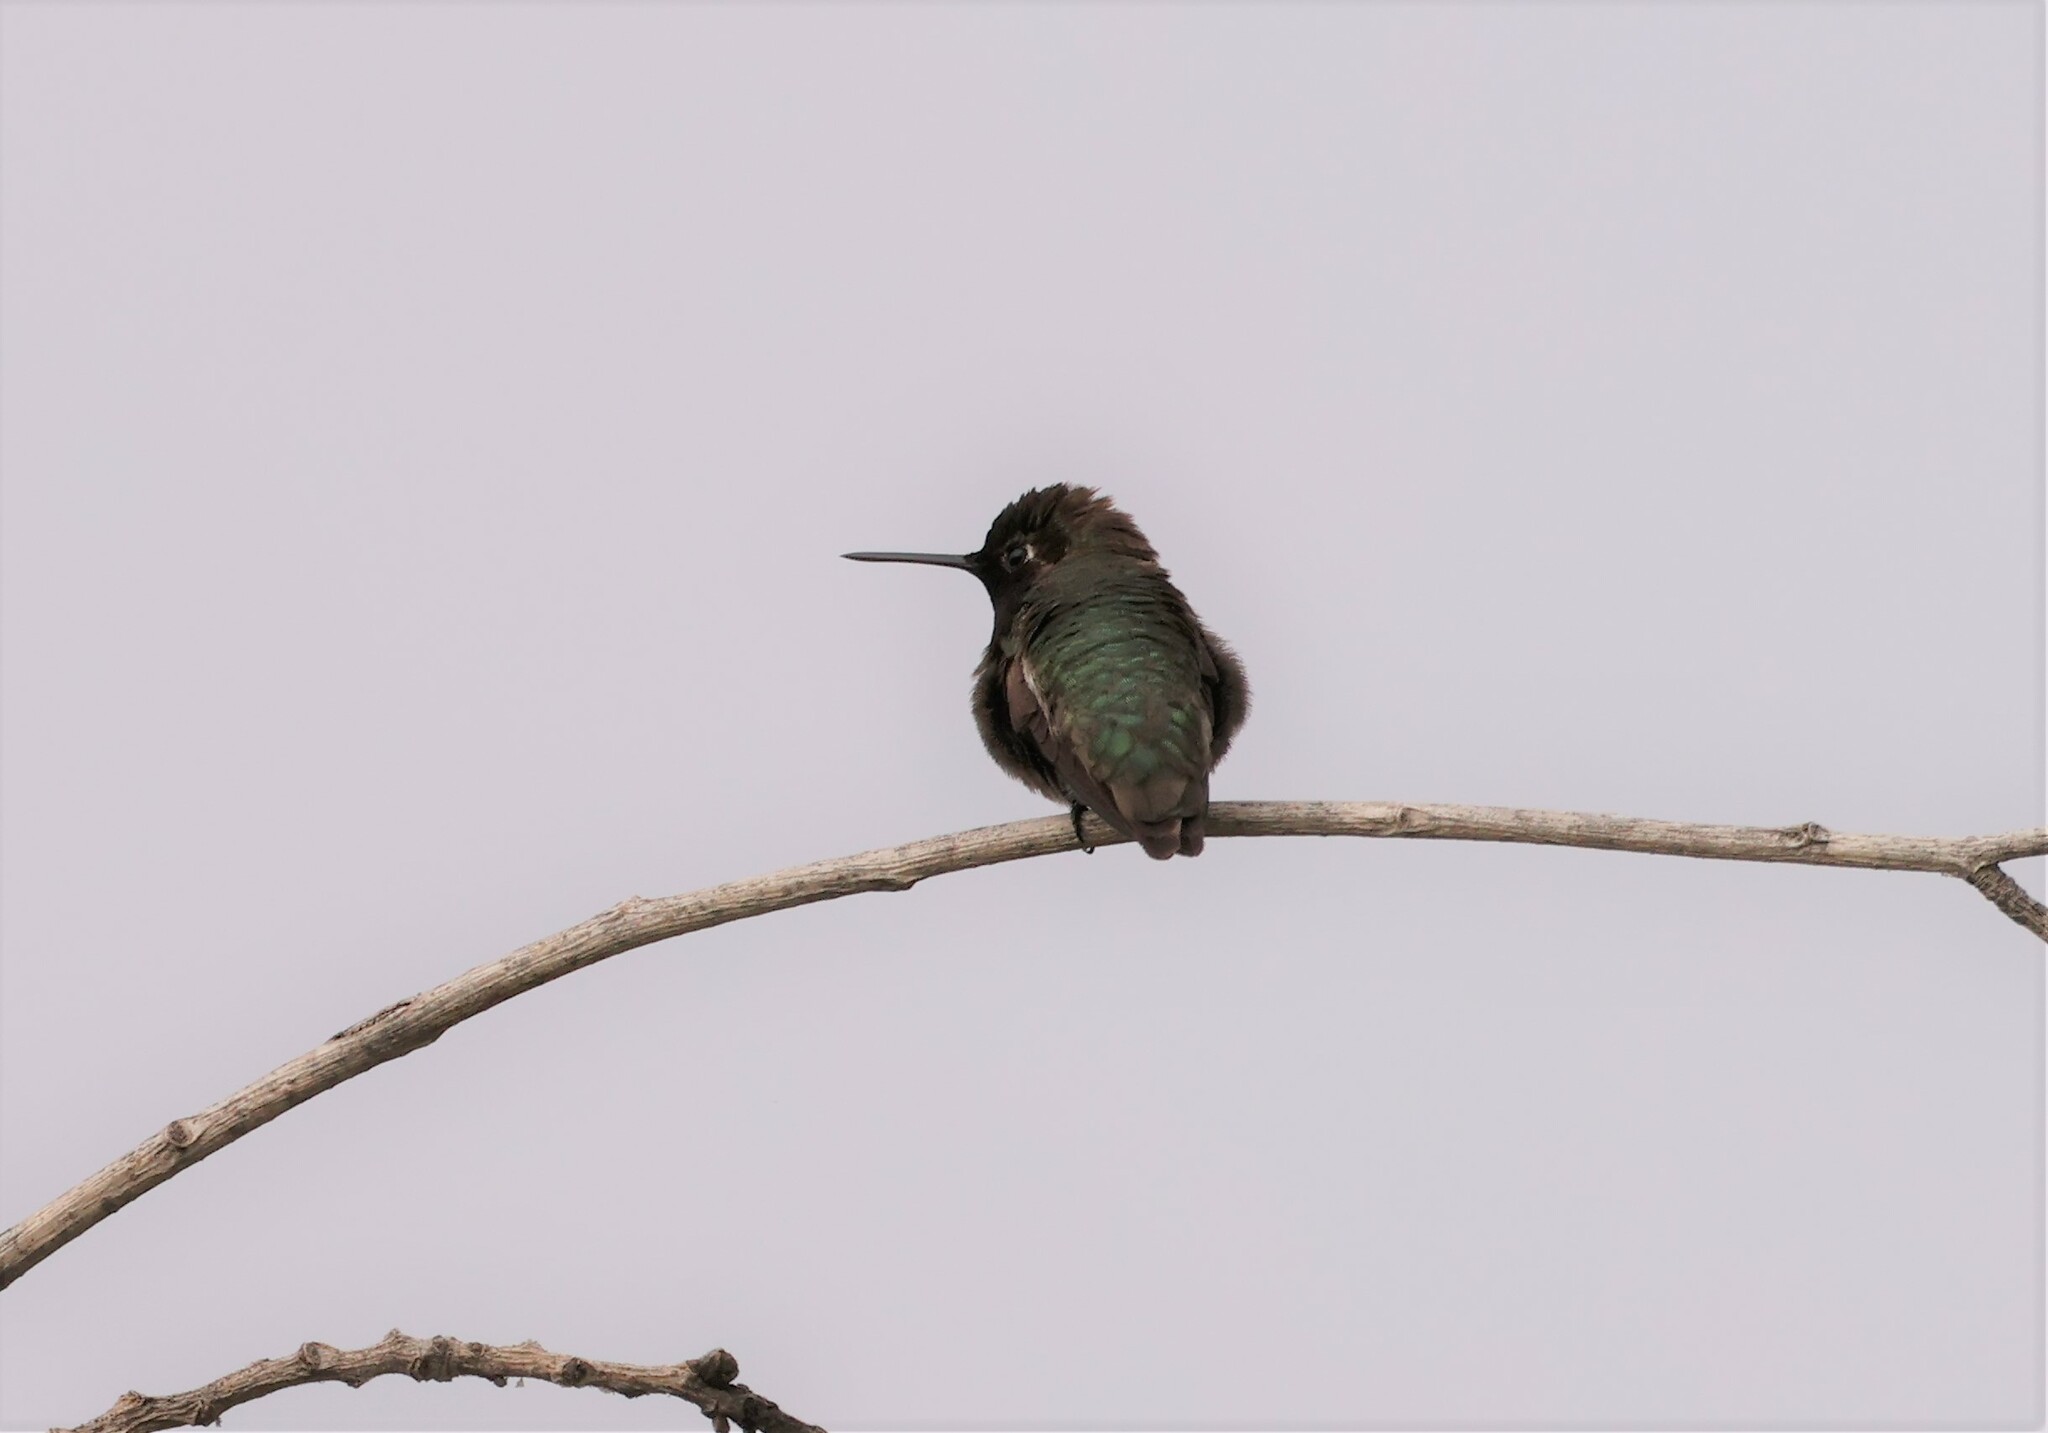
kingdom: Animalia
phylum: Chordata
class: Aves
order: Apodiformes
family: Trochilidae
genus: Calypte
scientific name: Calypte anna
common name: Anna's hummingbird
